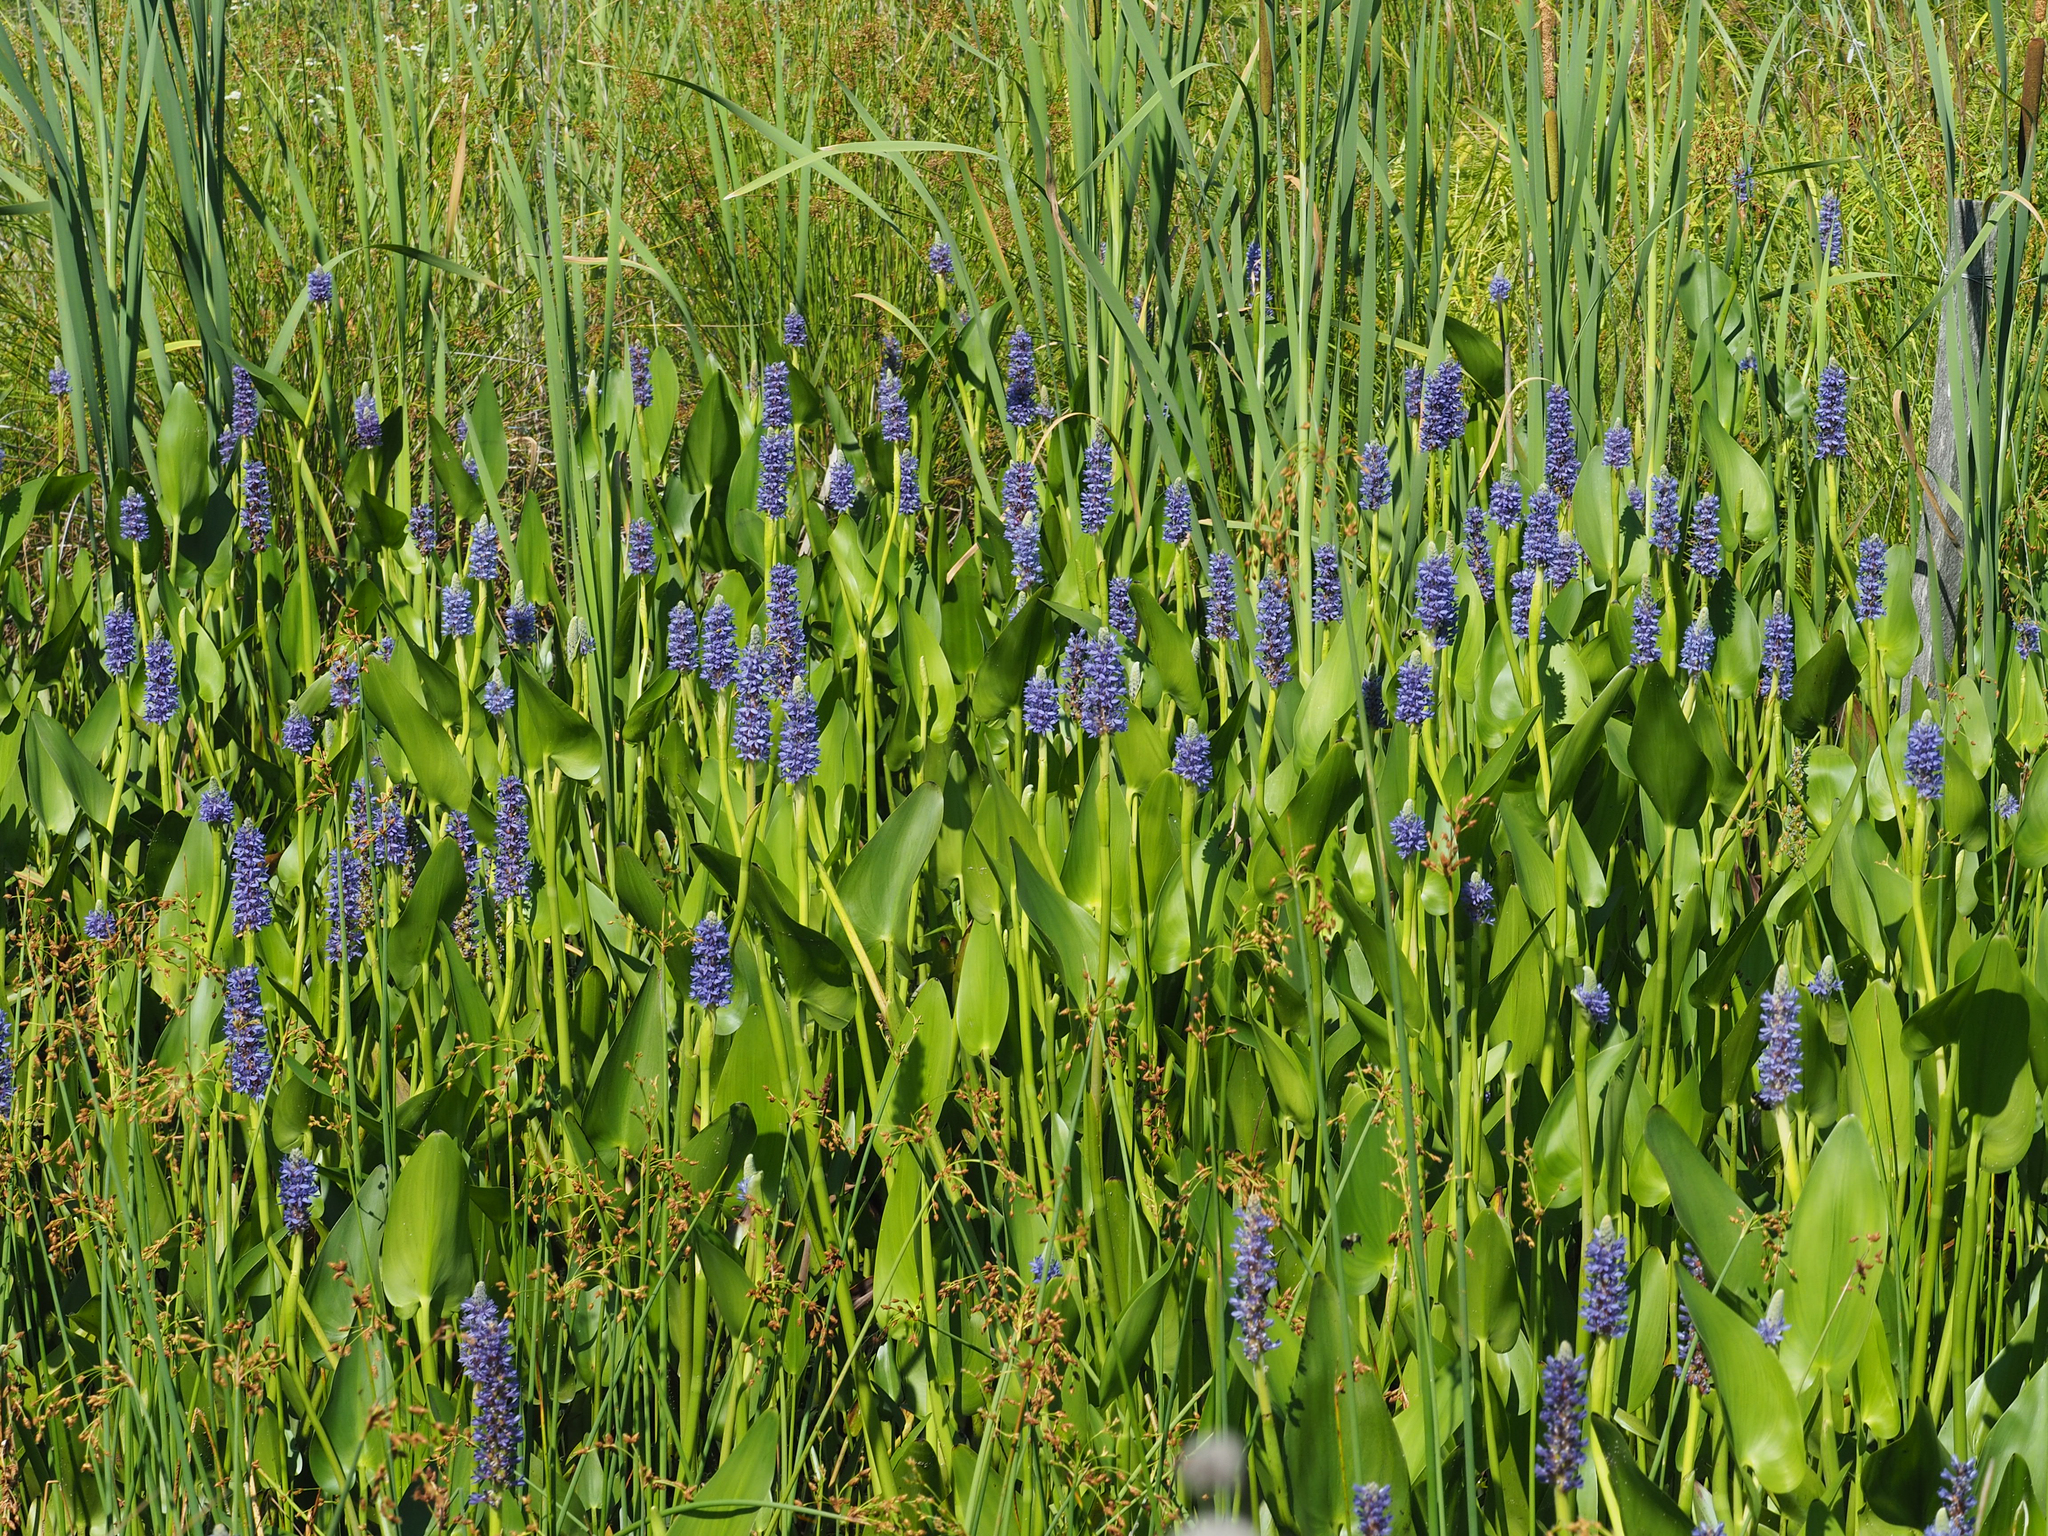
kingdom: Plantae
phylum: Tracheophyta
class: Liliopsida
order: Commelinales
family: Pontederiaceae
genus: Pontederia
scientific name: Pontederia cordata
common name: Pickerelweed
